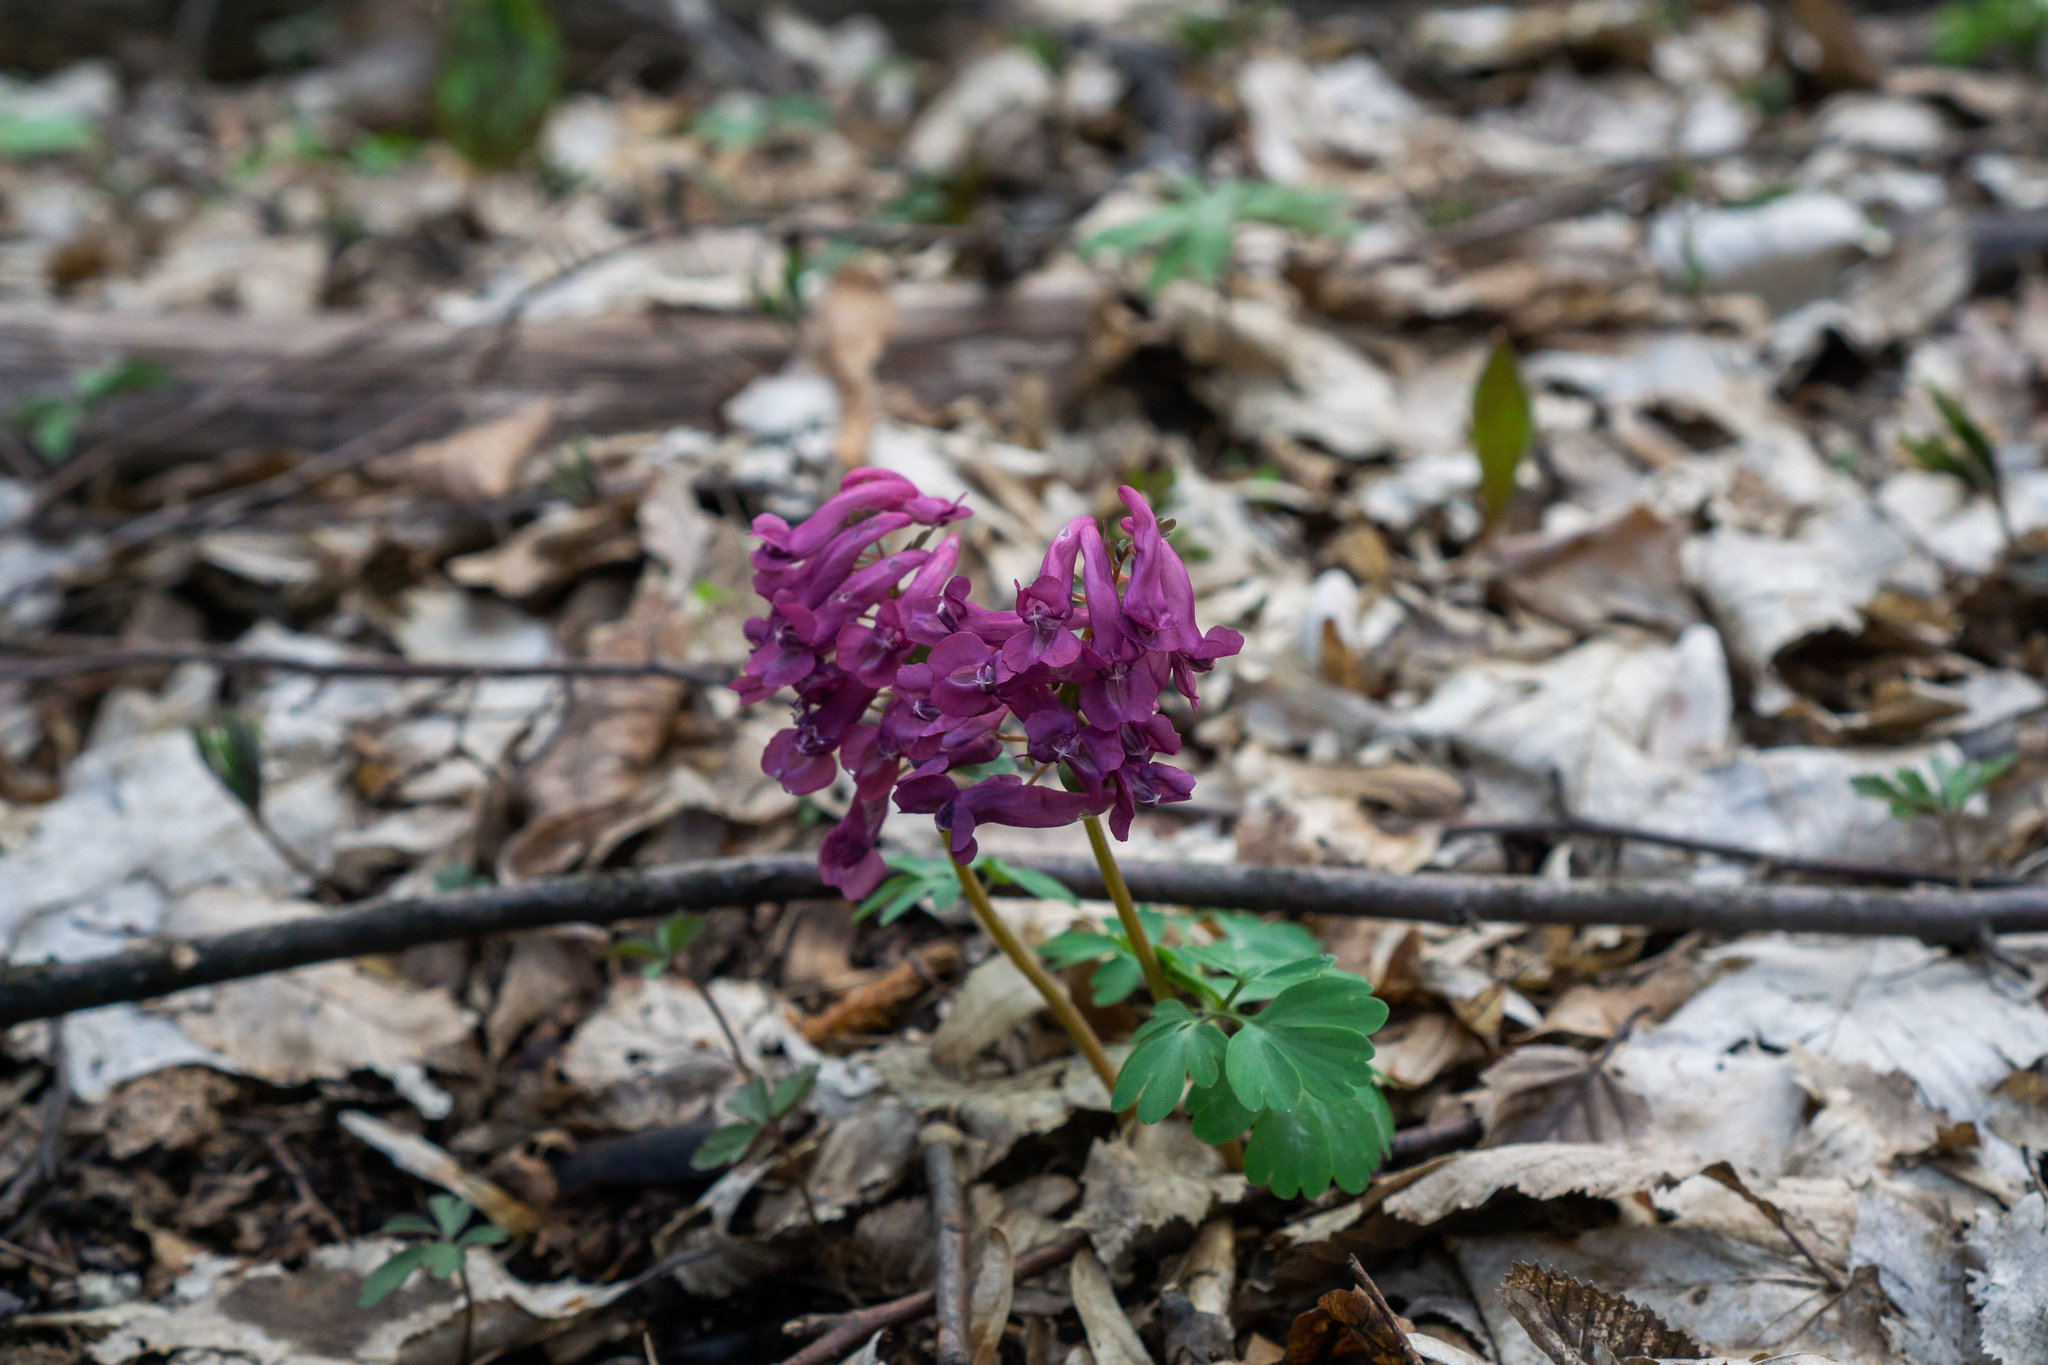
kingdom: Plantae
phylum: Tracheophyta
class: Magnoliopsida
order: Ranunculales
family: Papaveraceae
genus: Corydalis
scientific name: Corydalis solida
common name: Bird-in-a-bush
